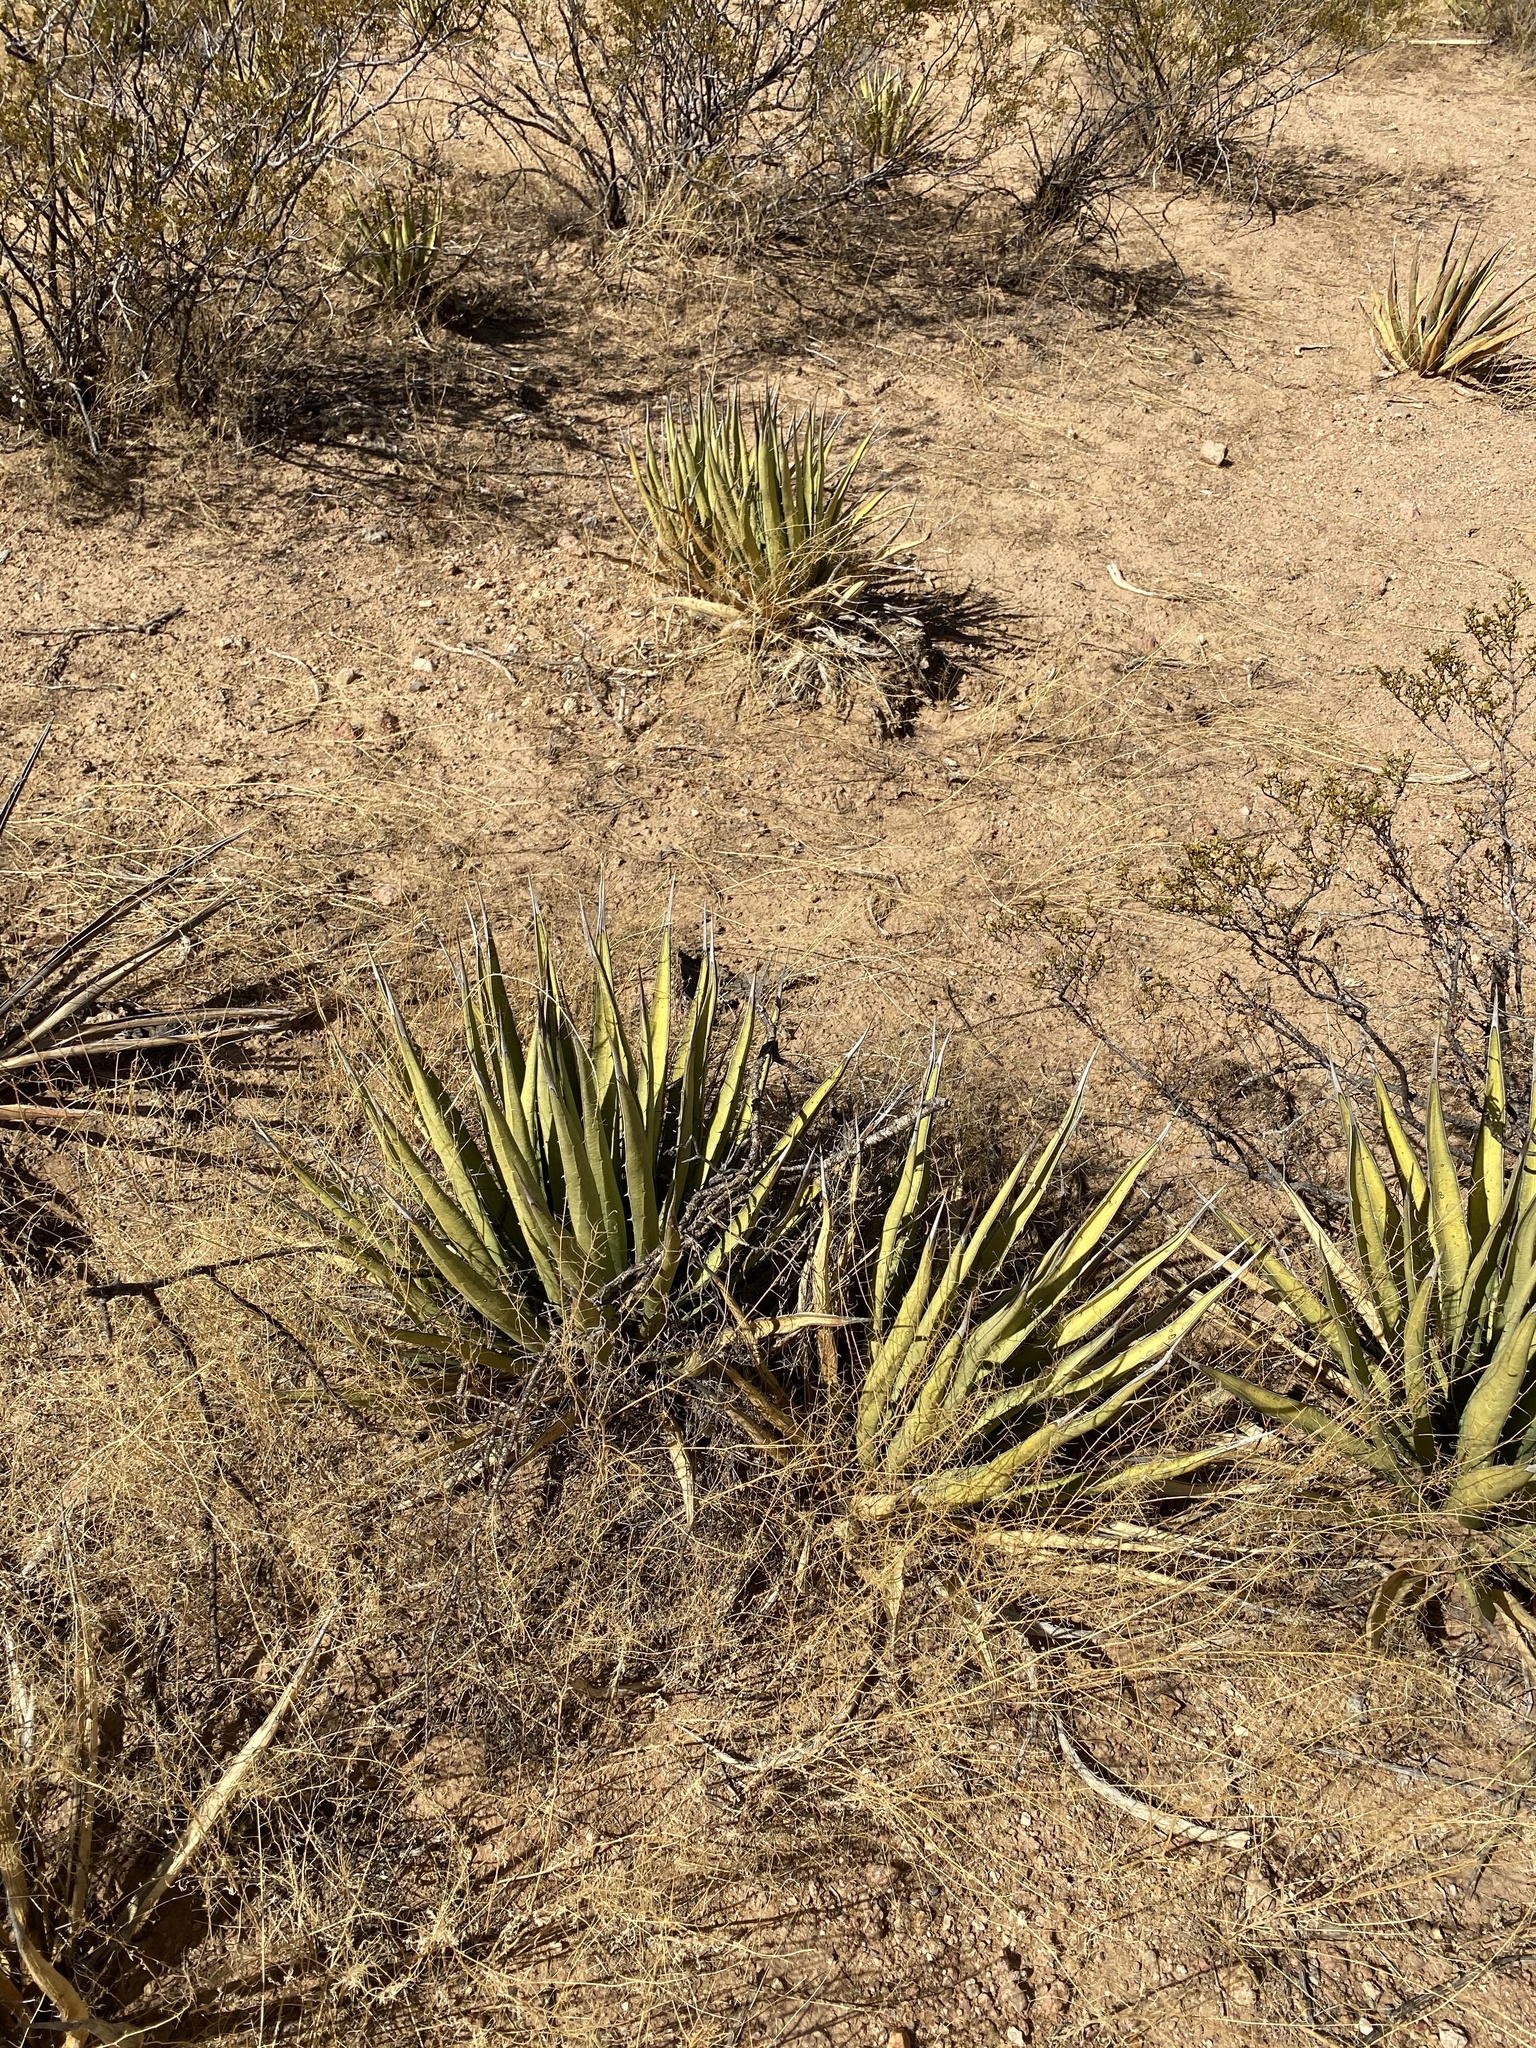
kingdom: Plantae
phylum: Tracheophyta
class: Liliopsida
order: Asparagales
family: Asparagaceae
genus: Agave
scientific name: Agave lechuguilla
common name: Lecheguilla agave
